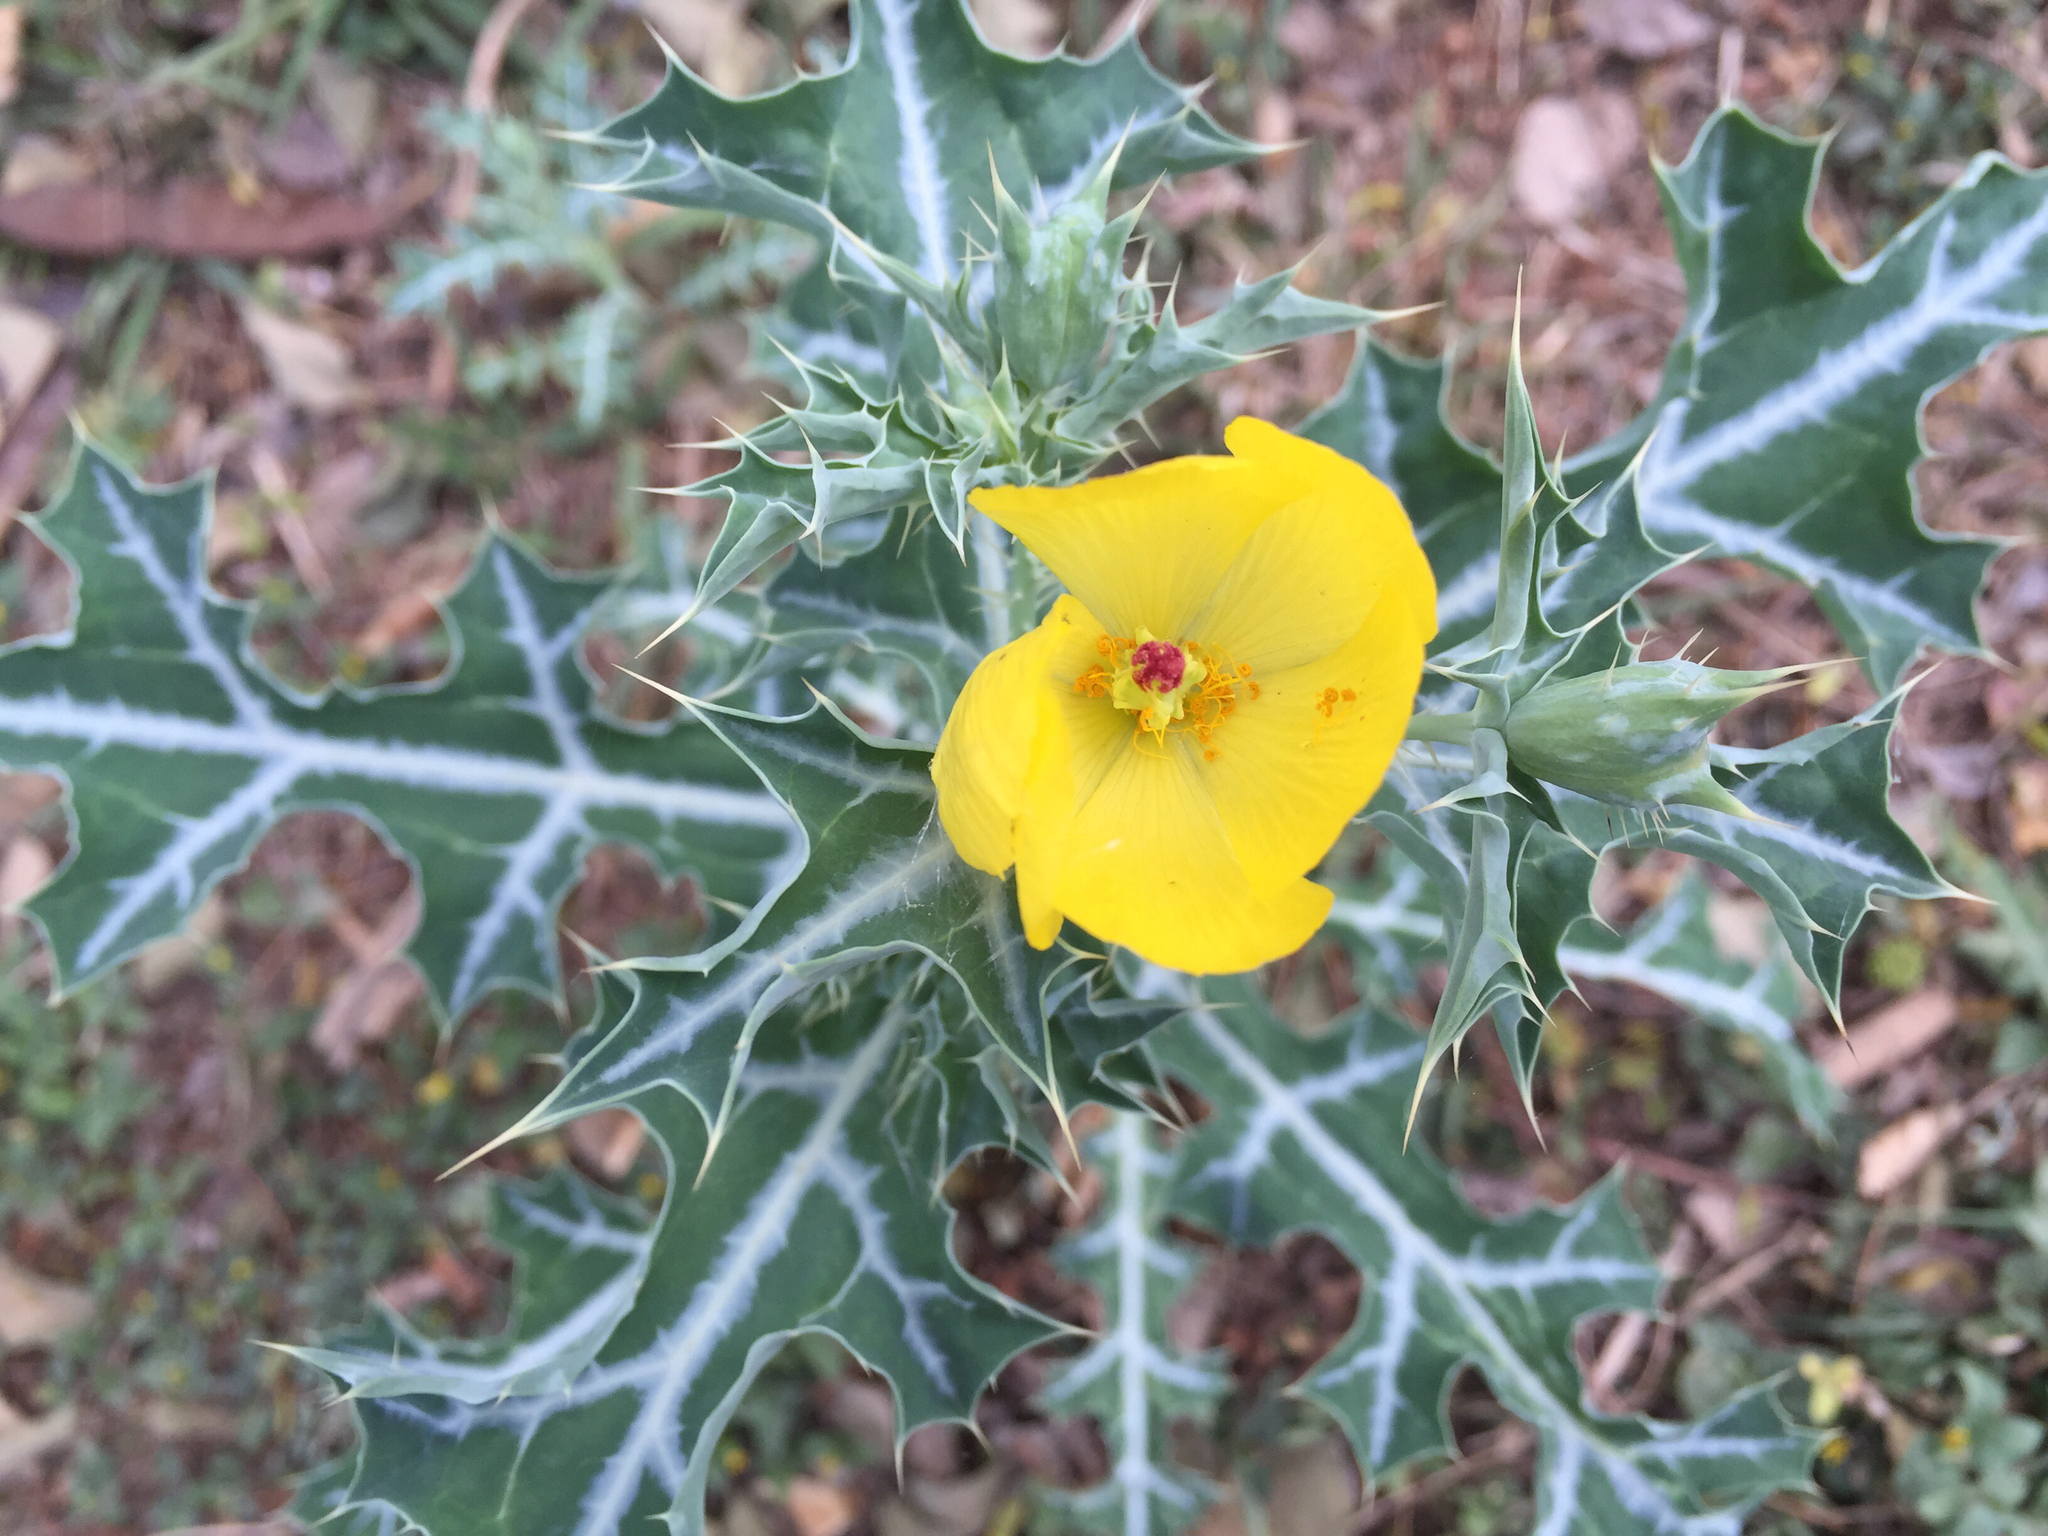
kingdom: Plantae
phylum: Tracheophyta
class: Magnoliopsida
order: Ranunculales
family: Papaveraceae
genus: Argemone
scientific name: Argemone mexicana
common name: Mexican poppy
